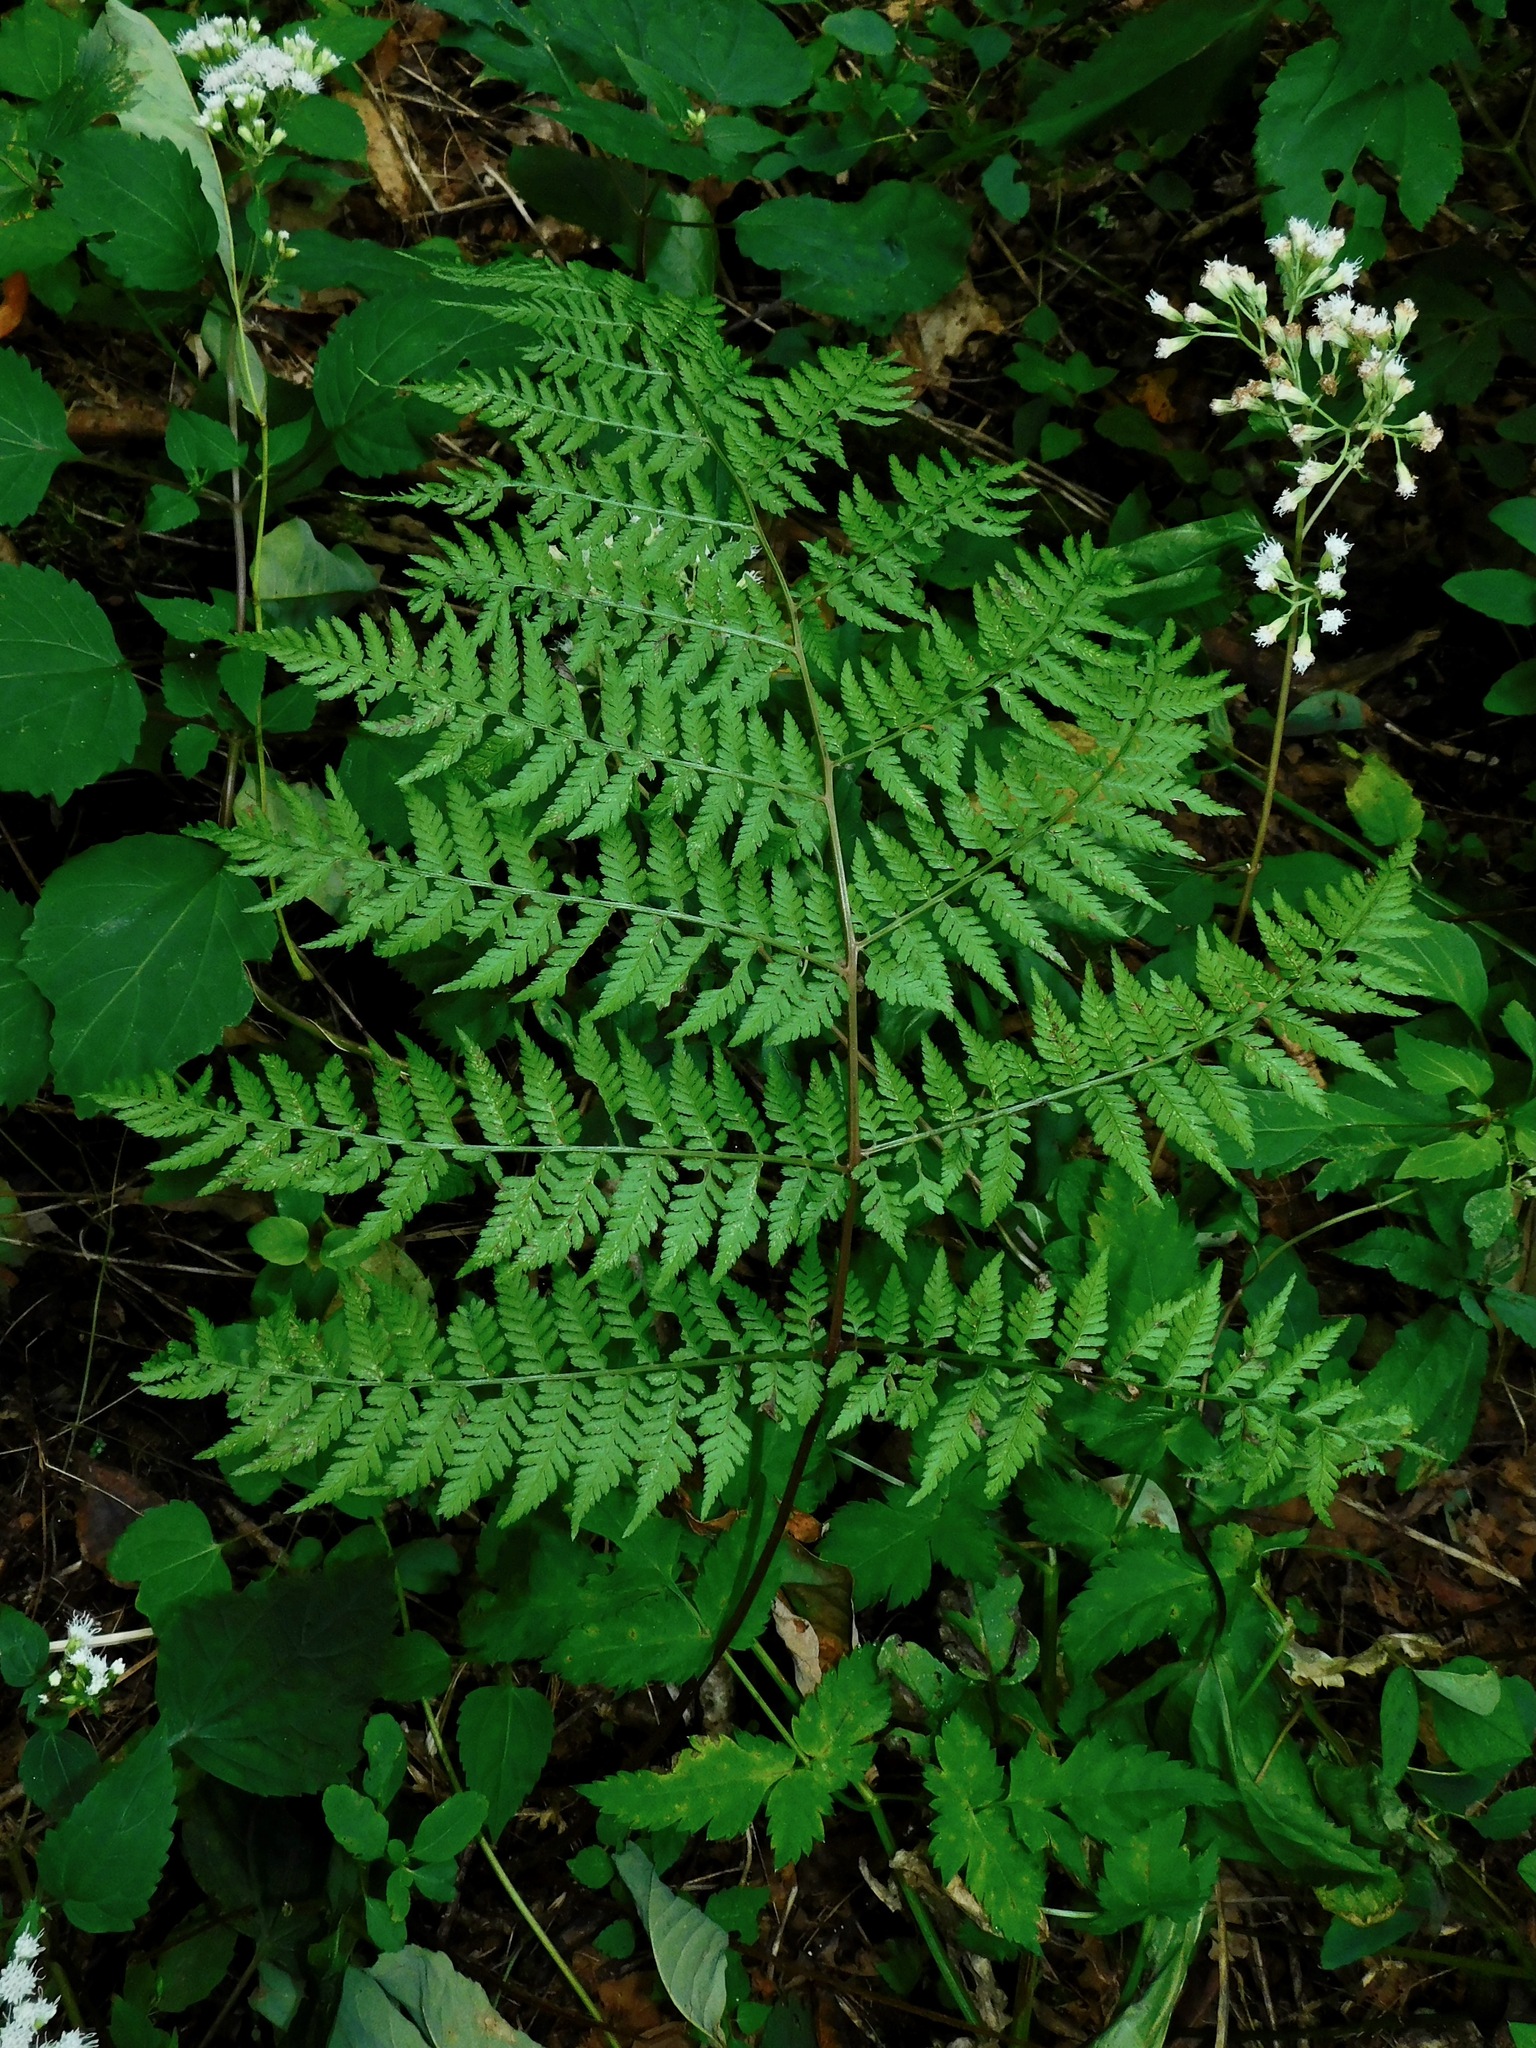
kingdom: Plantae
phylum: Tracheophyta
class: Polypodiopsida
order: Polypodiales
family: Athyriaceae
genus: Athyrium
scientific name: Athyrium asplenioides
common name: Southern lady fern
